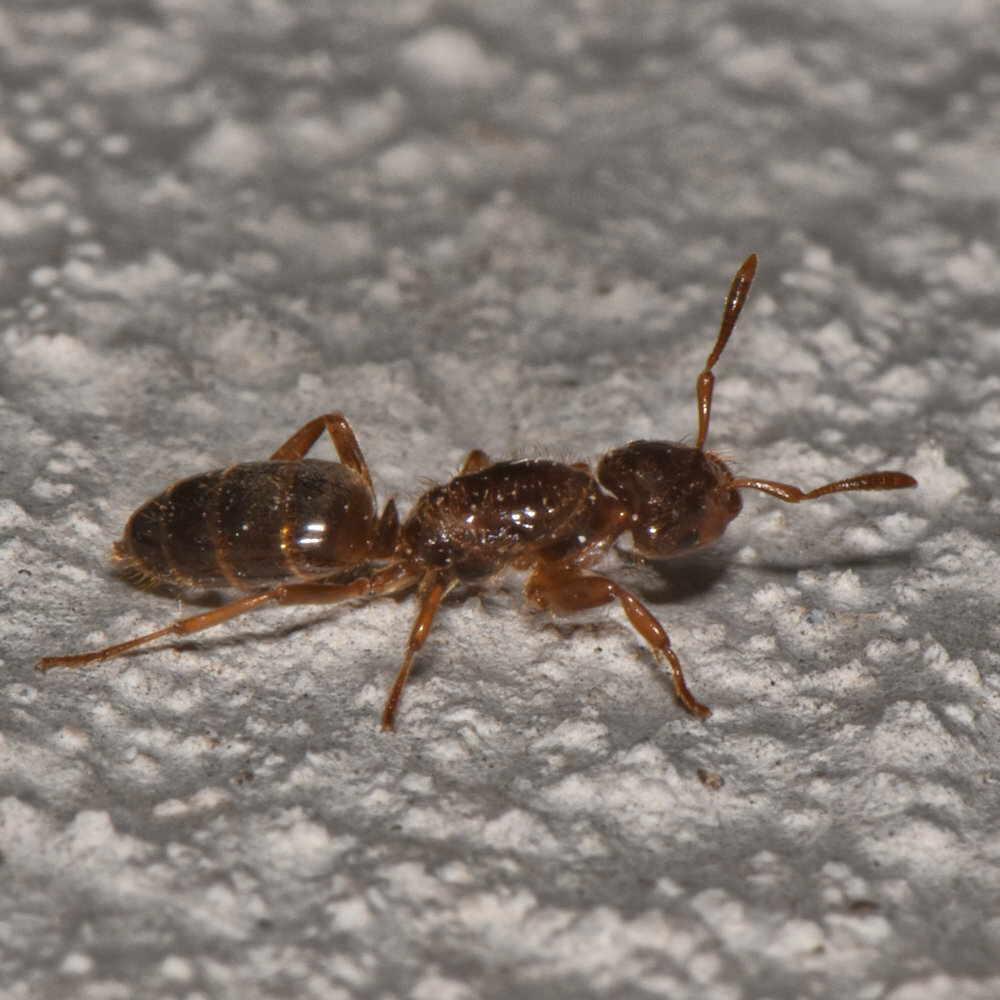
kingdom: Animalia
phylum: Arthropoda
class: Insecta
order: Hymenoptera
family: Formicidae
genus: Lasius
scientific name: Lasius claviger
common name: Common citronella ant
